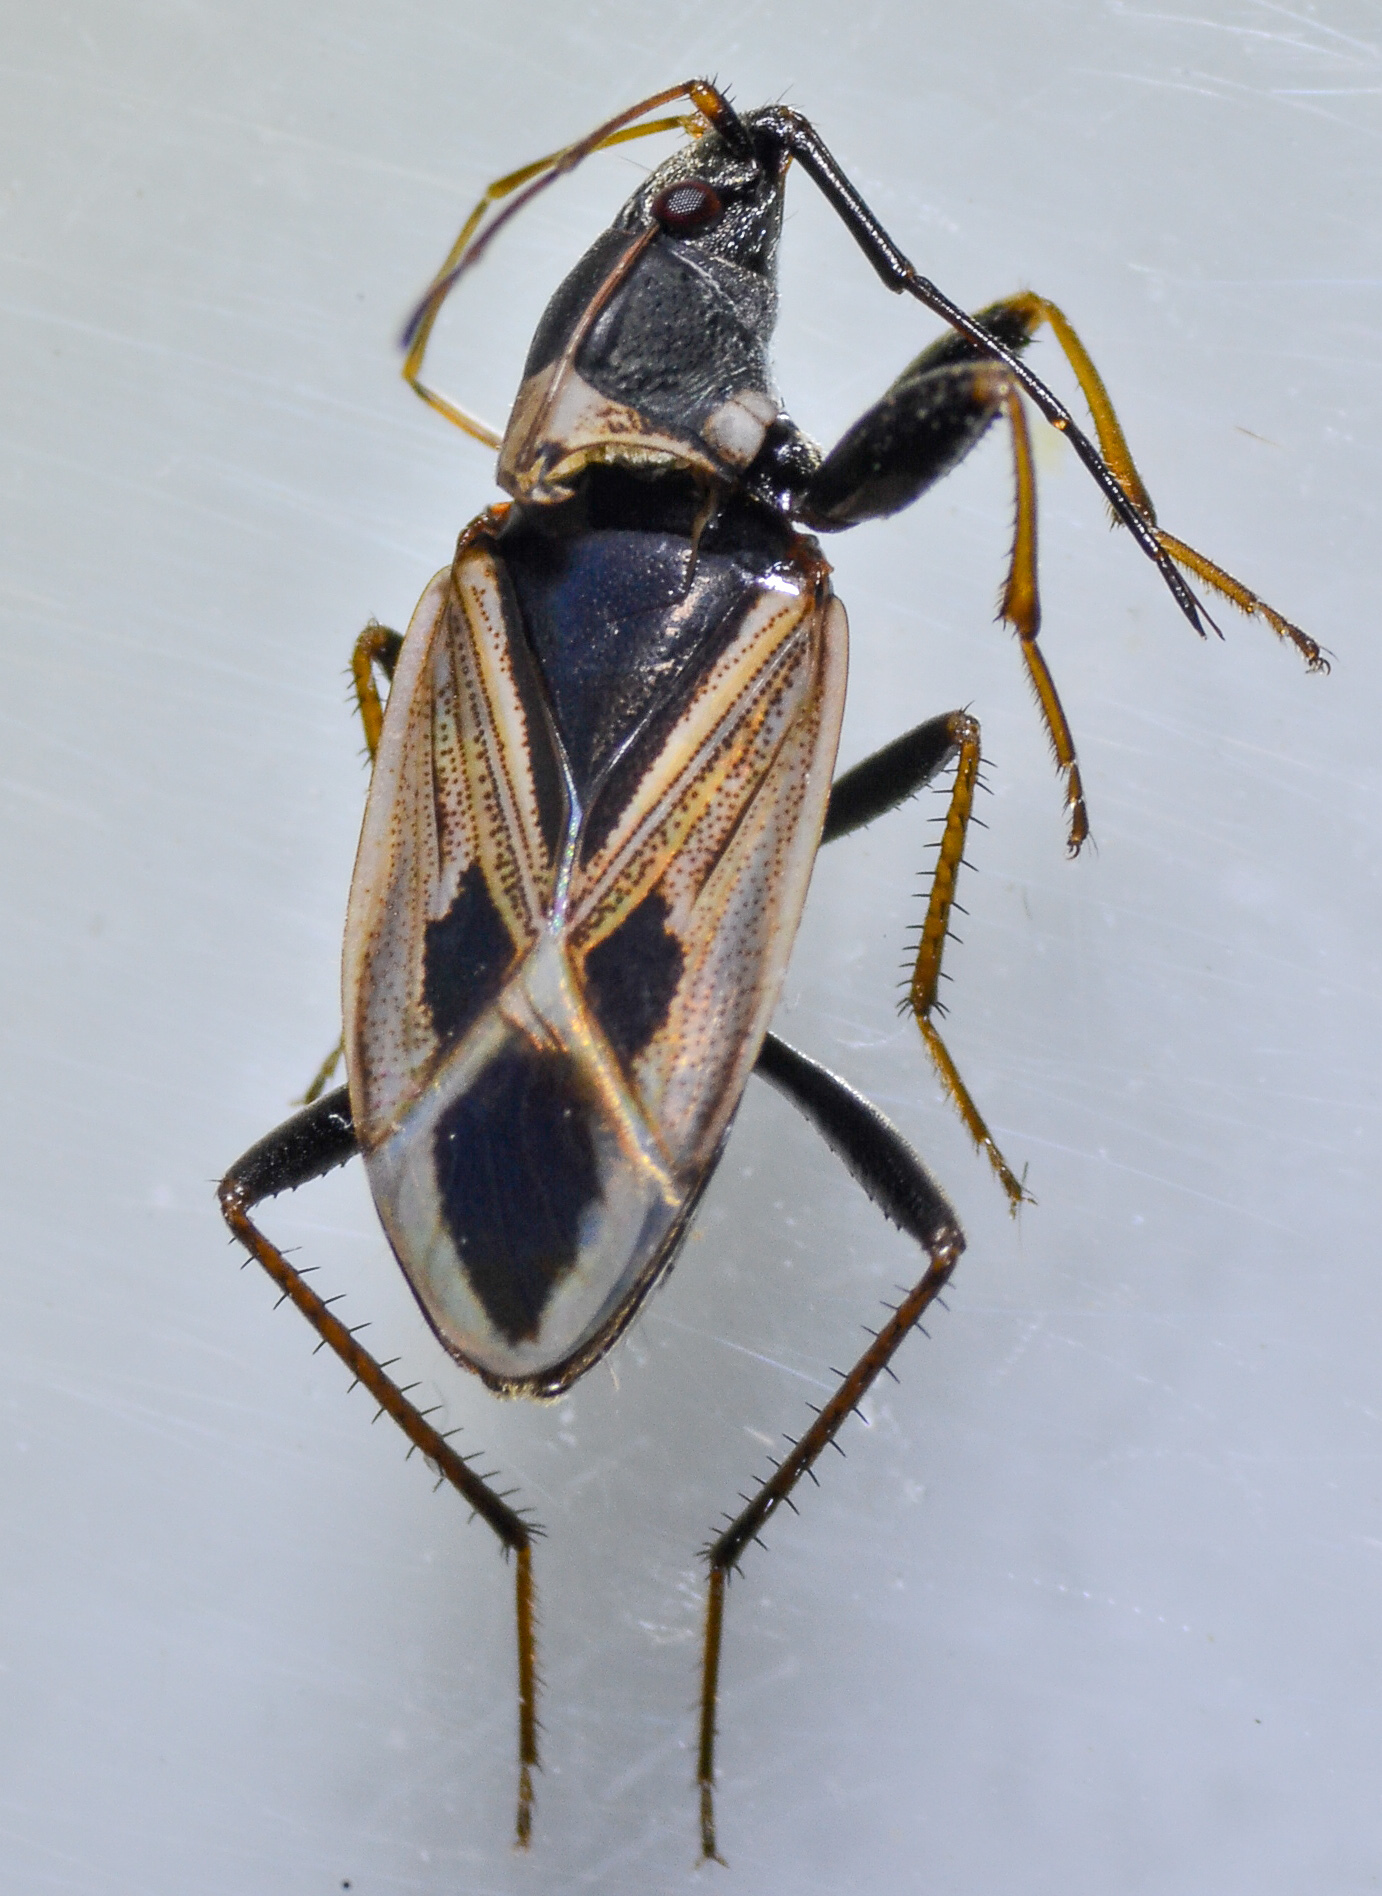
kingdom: Animalia
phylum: Arthropoda
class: Insecta
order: Hemiptera
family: Rhyparochromidae
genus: Xanthochilus
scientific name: Xanthochilus saturnius
